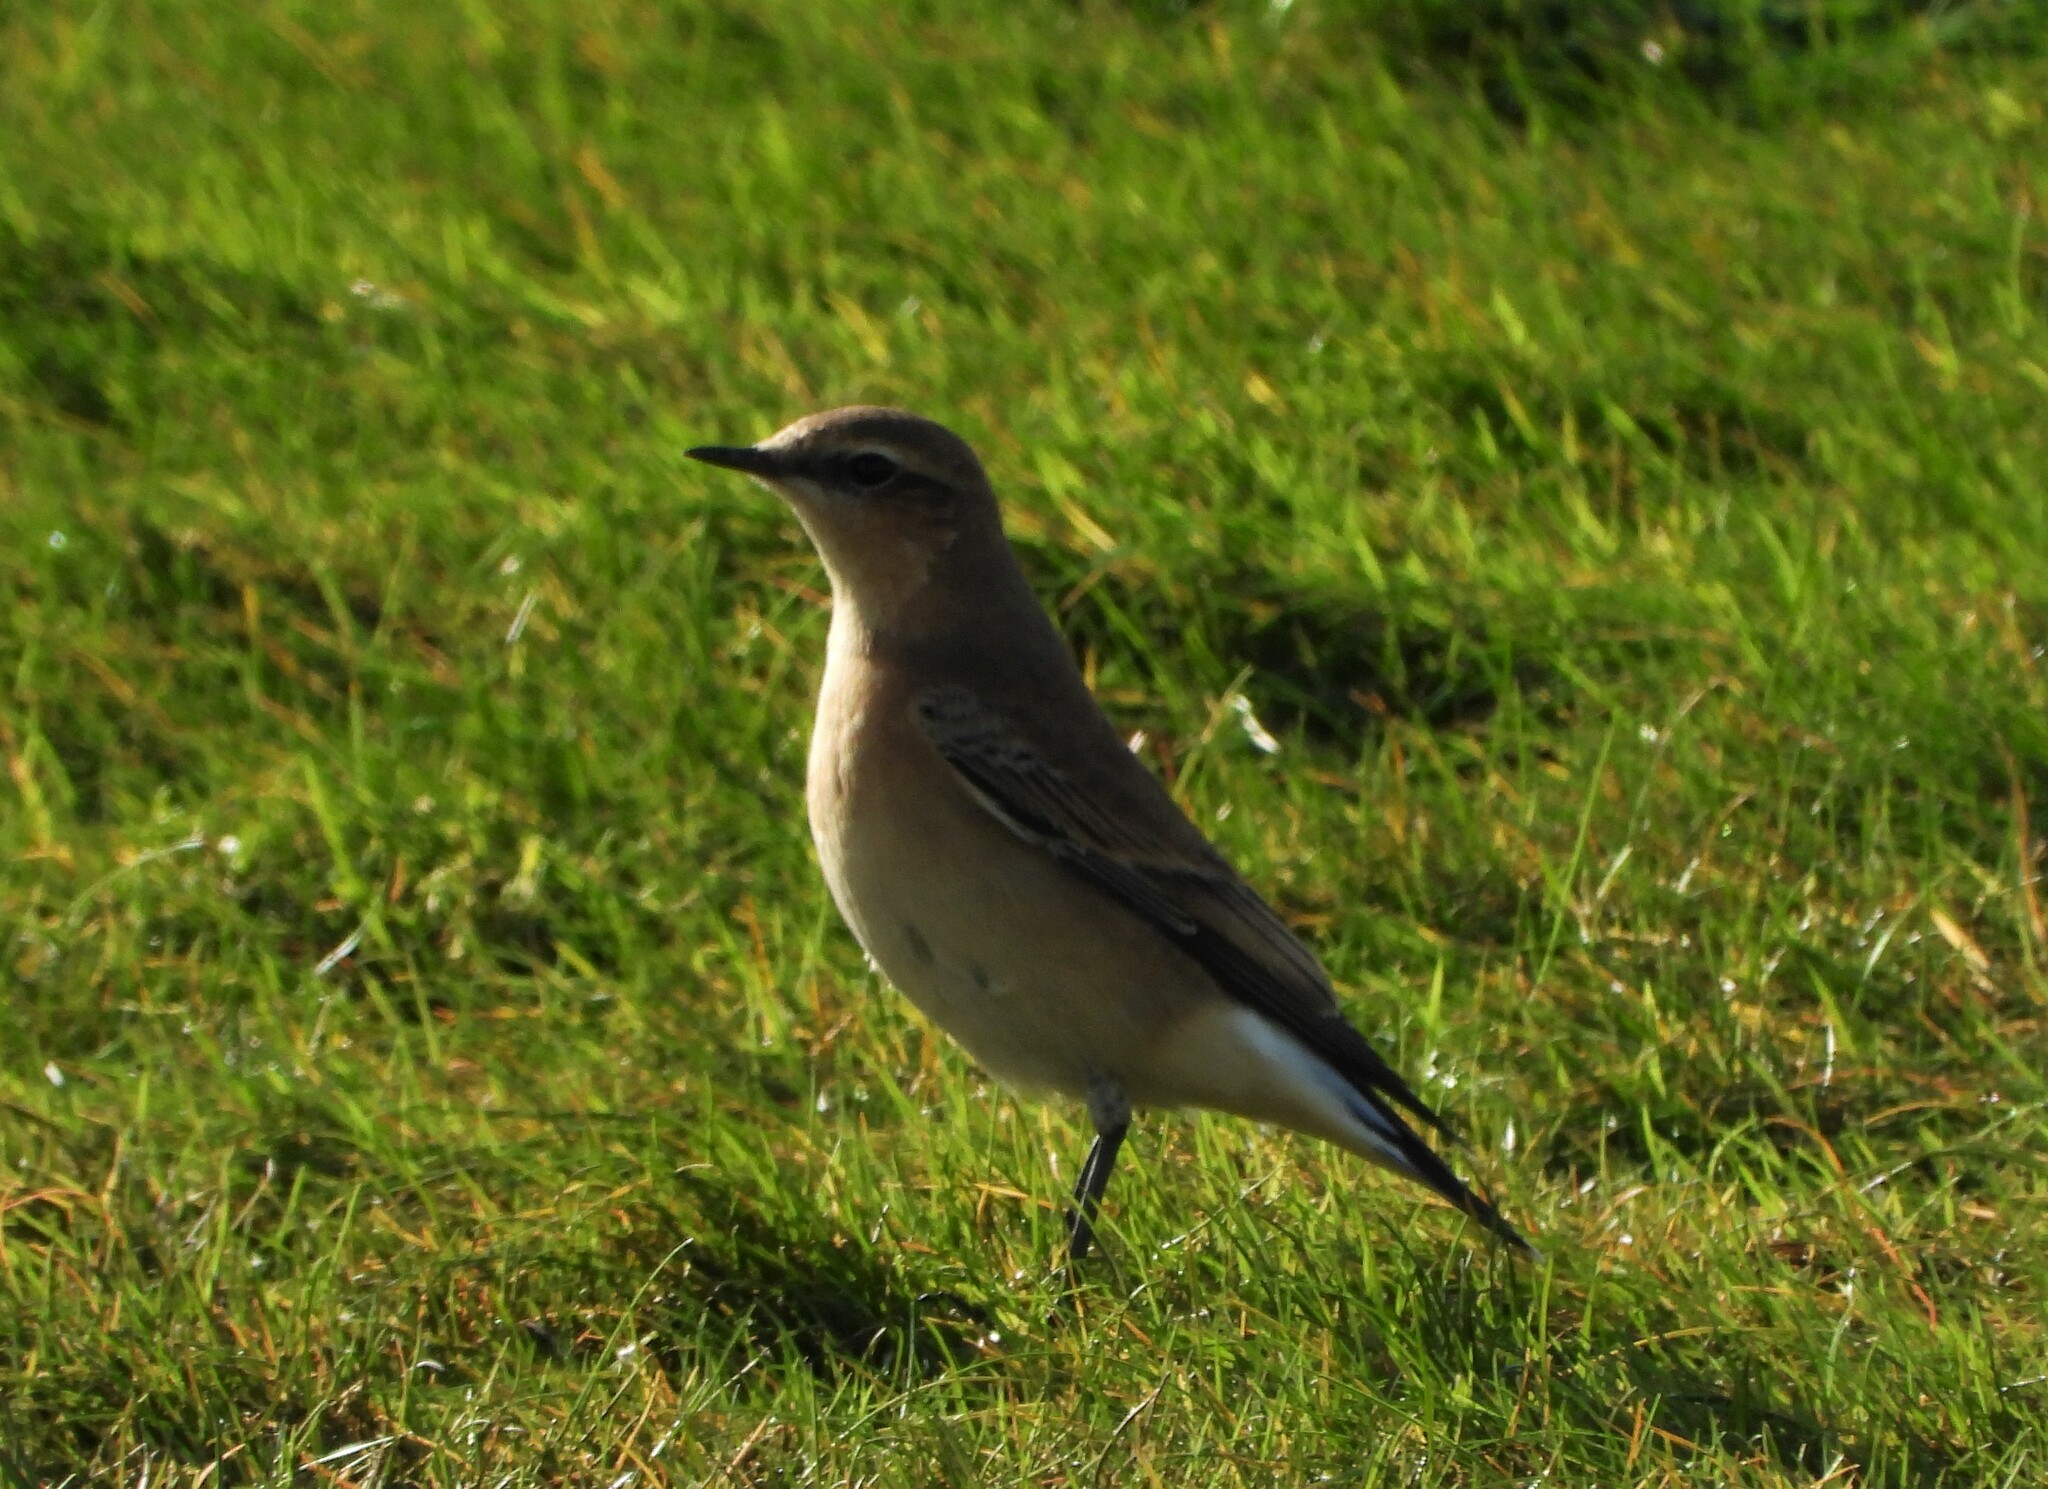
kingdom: Animalia
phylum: Chordata
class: Aves
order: Passeriformes
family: Muscicapidae
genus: Oenanthe
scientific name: Oenanthe oenanthe
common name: Northern wheatear
